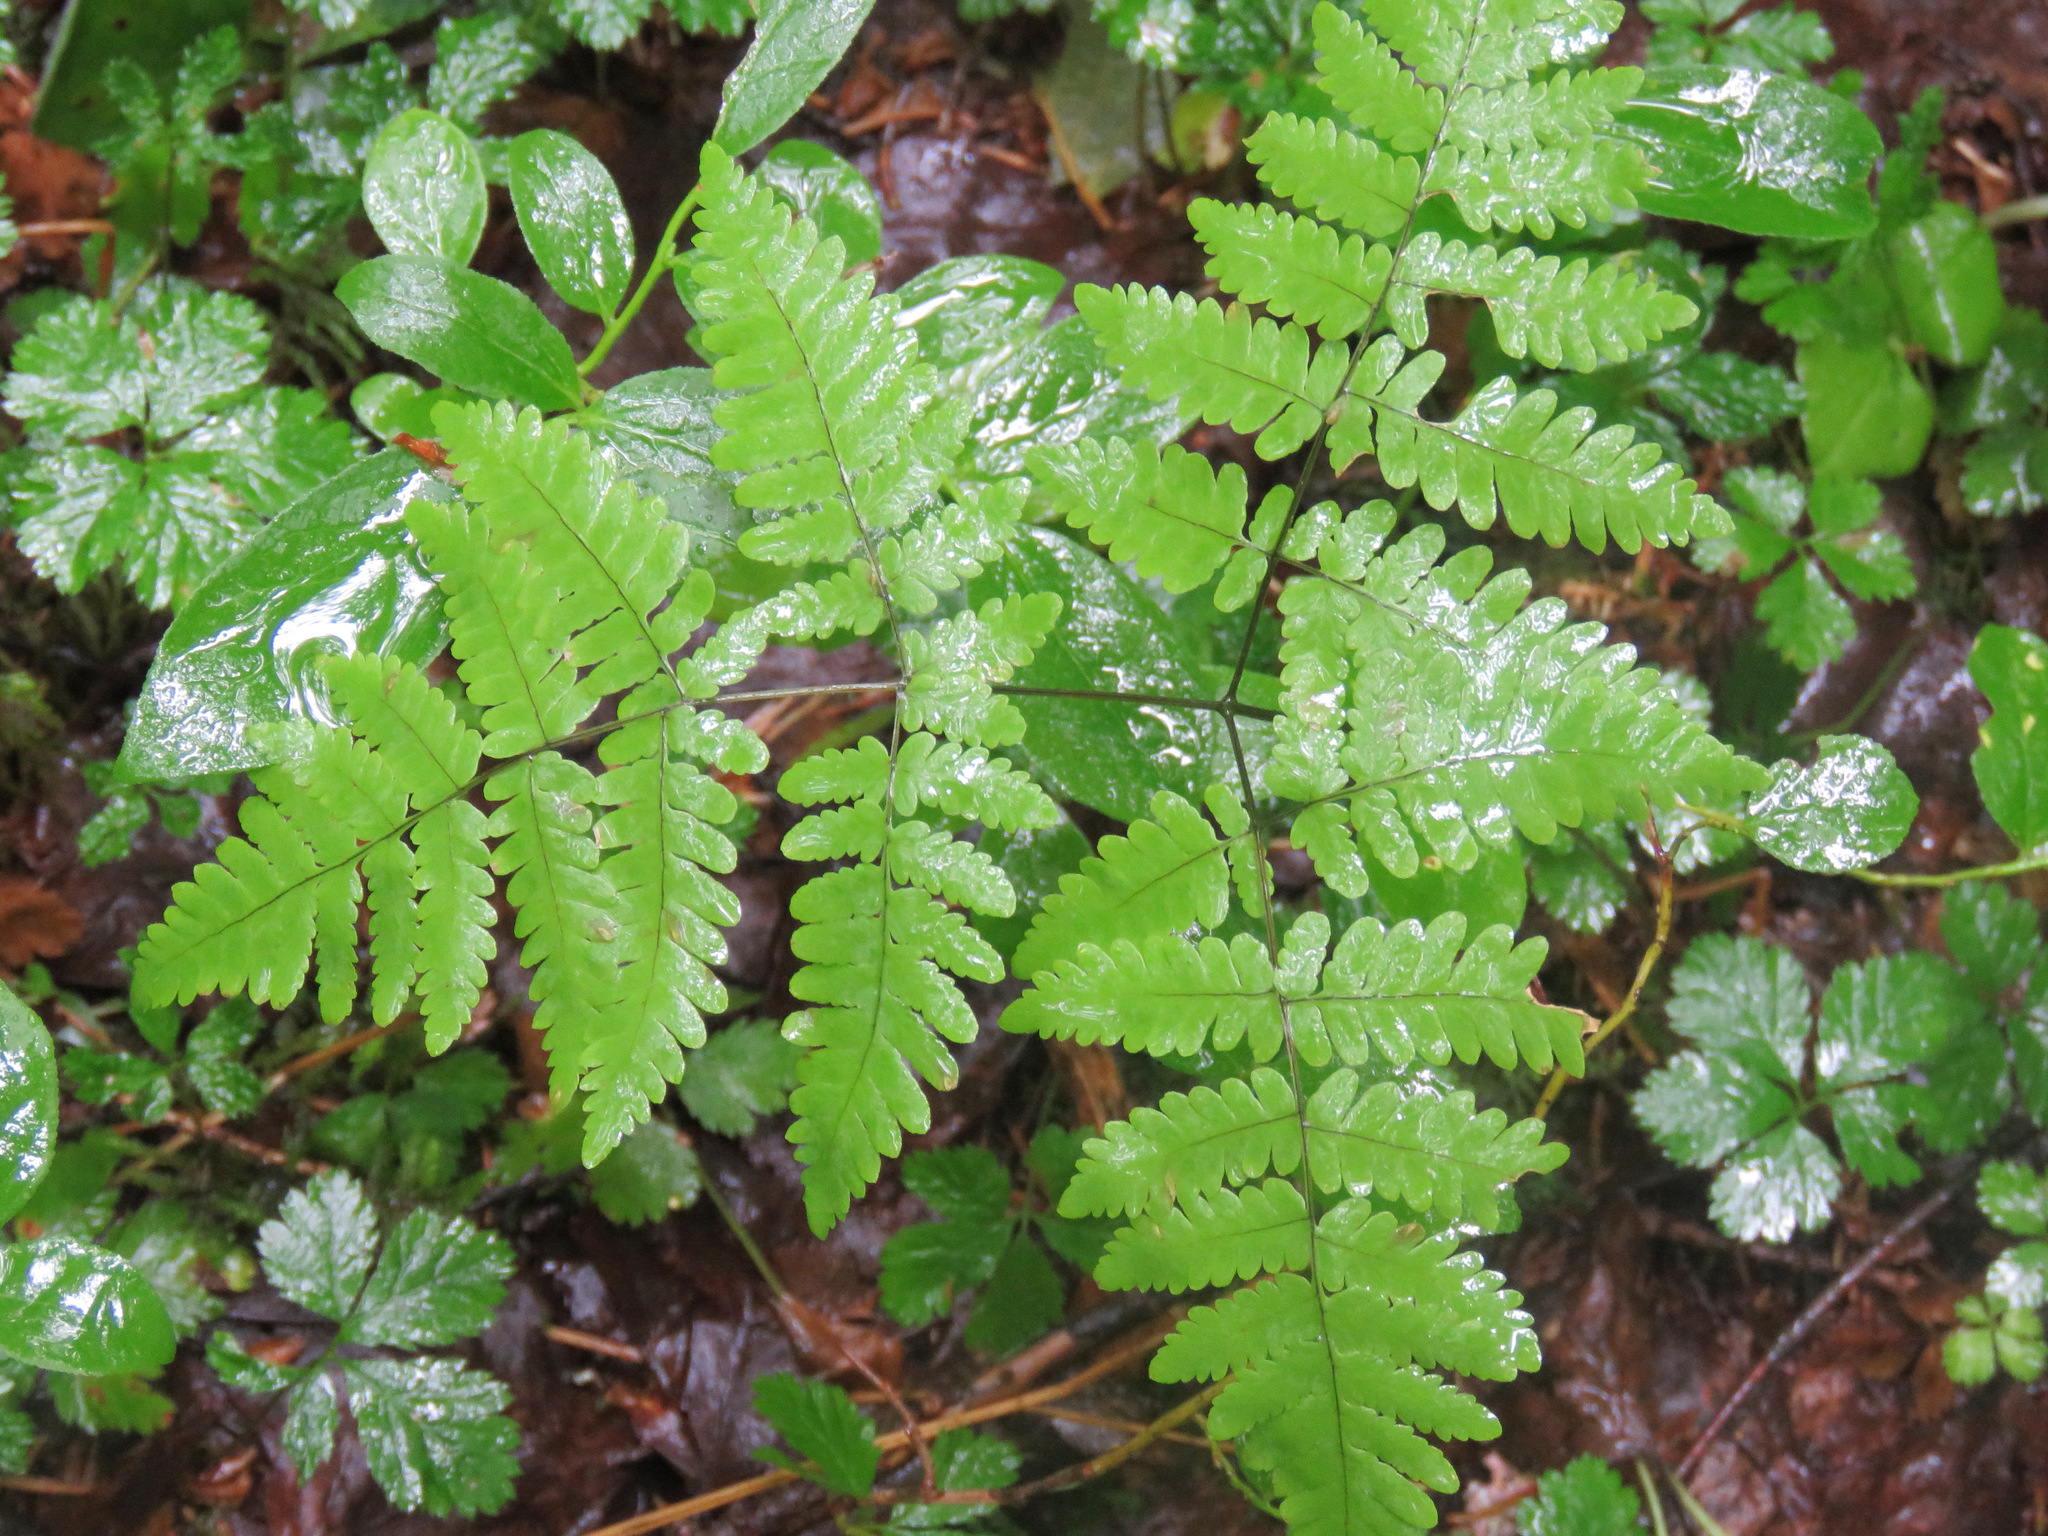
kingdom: Plantae
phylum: Tracheophyta
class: Polypodiopsida
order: Polypodiales
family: Cystopteridaceae
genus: Gymnocarpium
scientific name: Gymnocarpium dryopteris
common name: Oak fern
